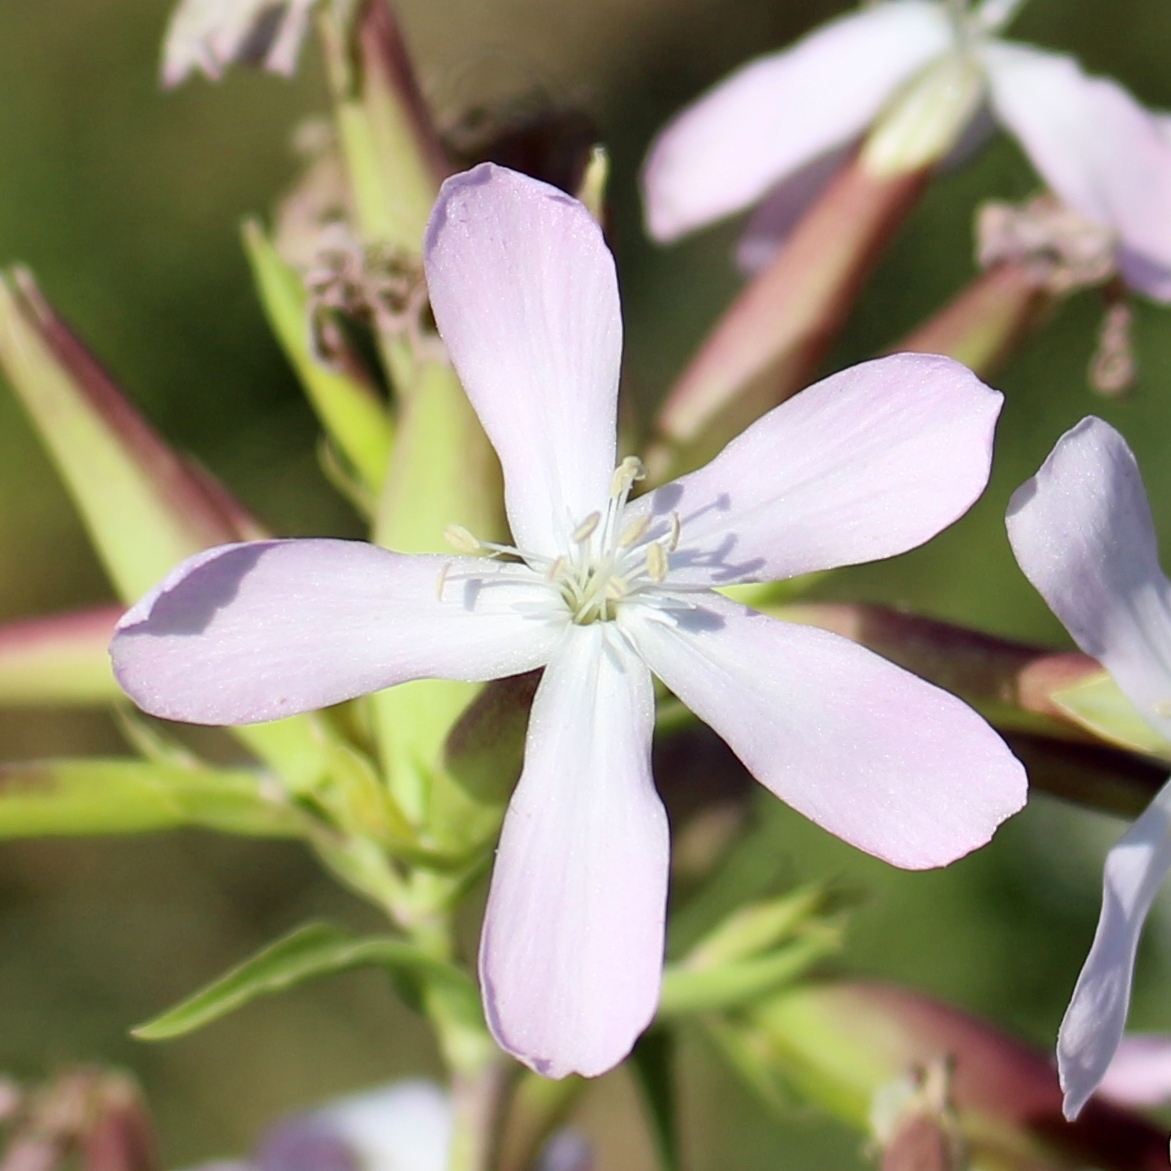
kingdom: Plantae
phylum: Tracheophyta
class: Magnoliopsida
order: Caryophyllales
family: Caryophyllaceae
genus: Saponaria
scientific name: Saponaria officinalis
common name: Soapwort
